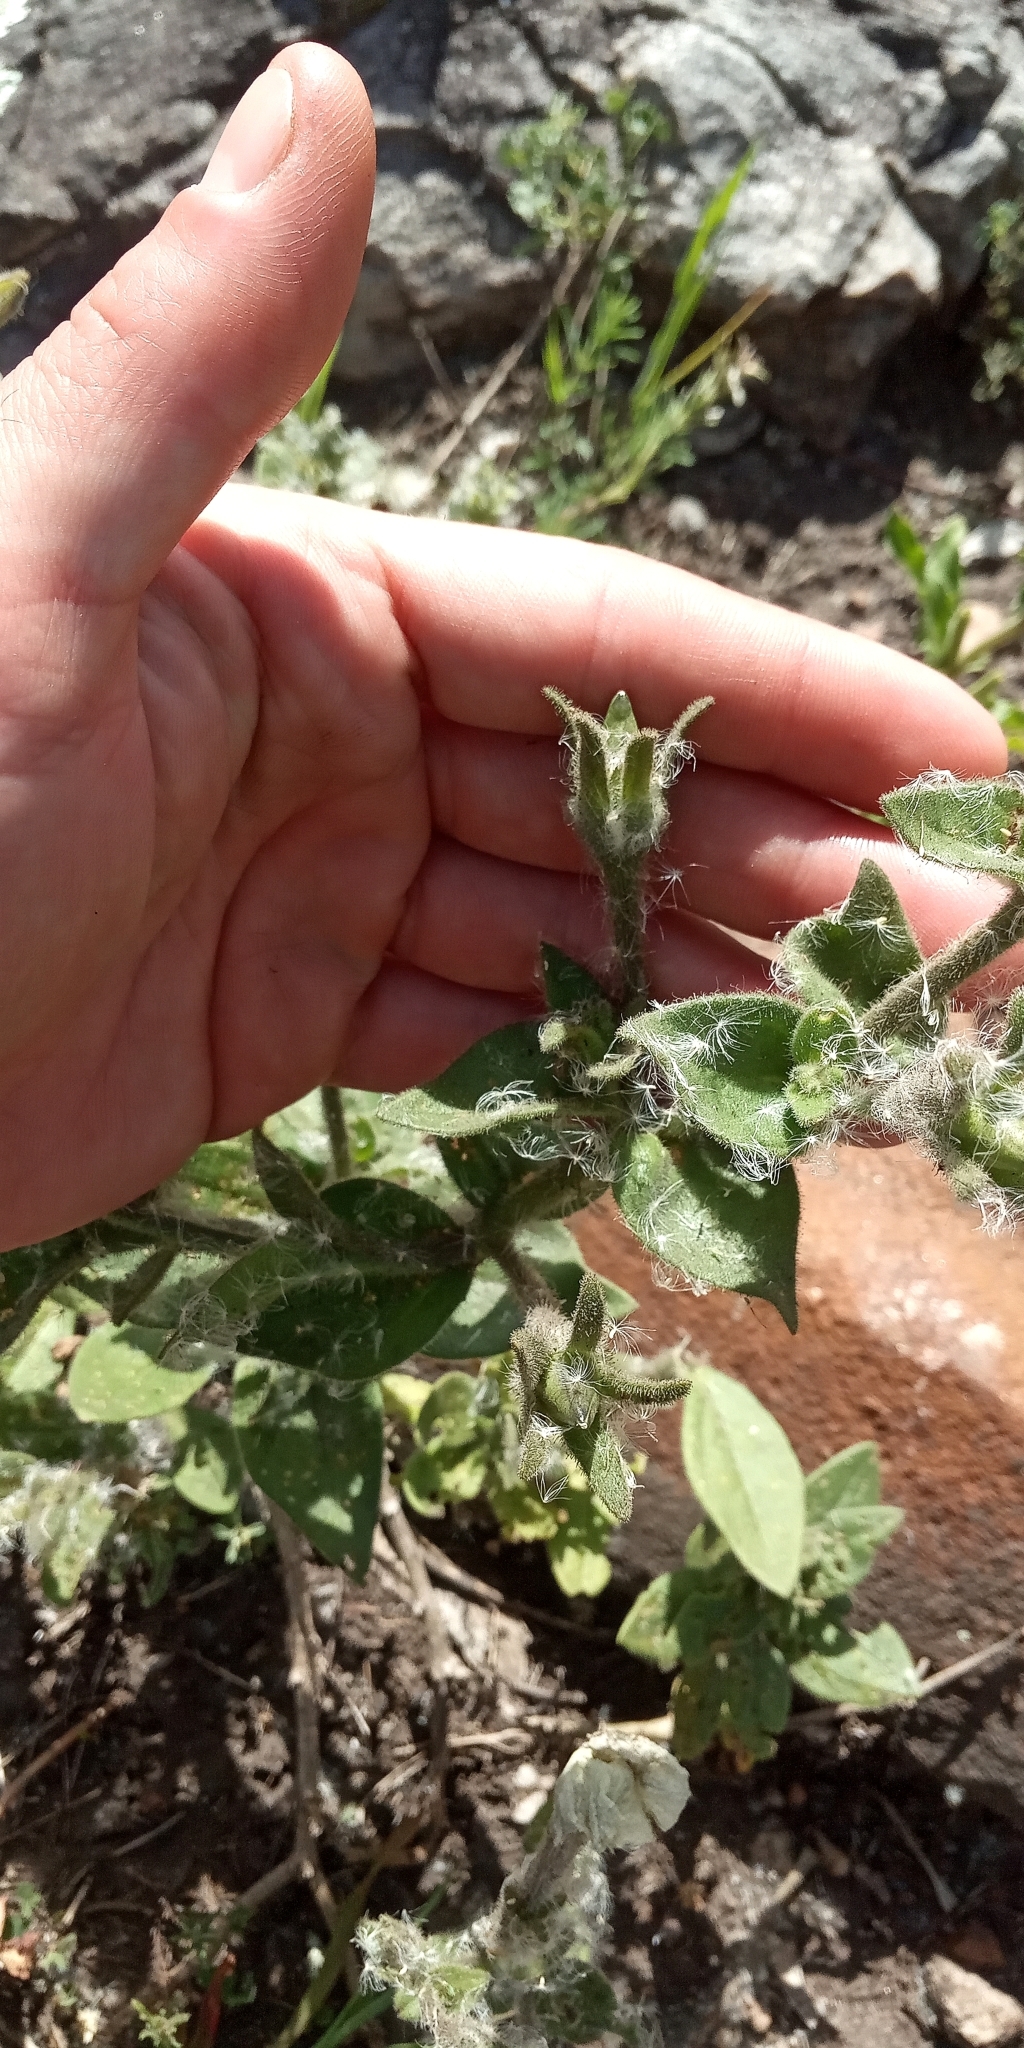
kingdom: Plantae
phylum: Tracheophyta
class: Magnoliopsida
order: Solanales
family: Solanaceae
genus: Petunia
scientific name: Petunia axillaris
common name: Large white petunia
